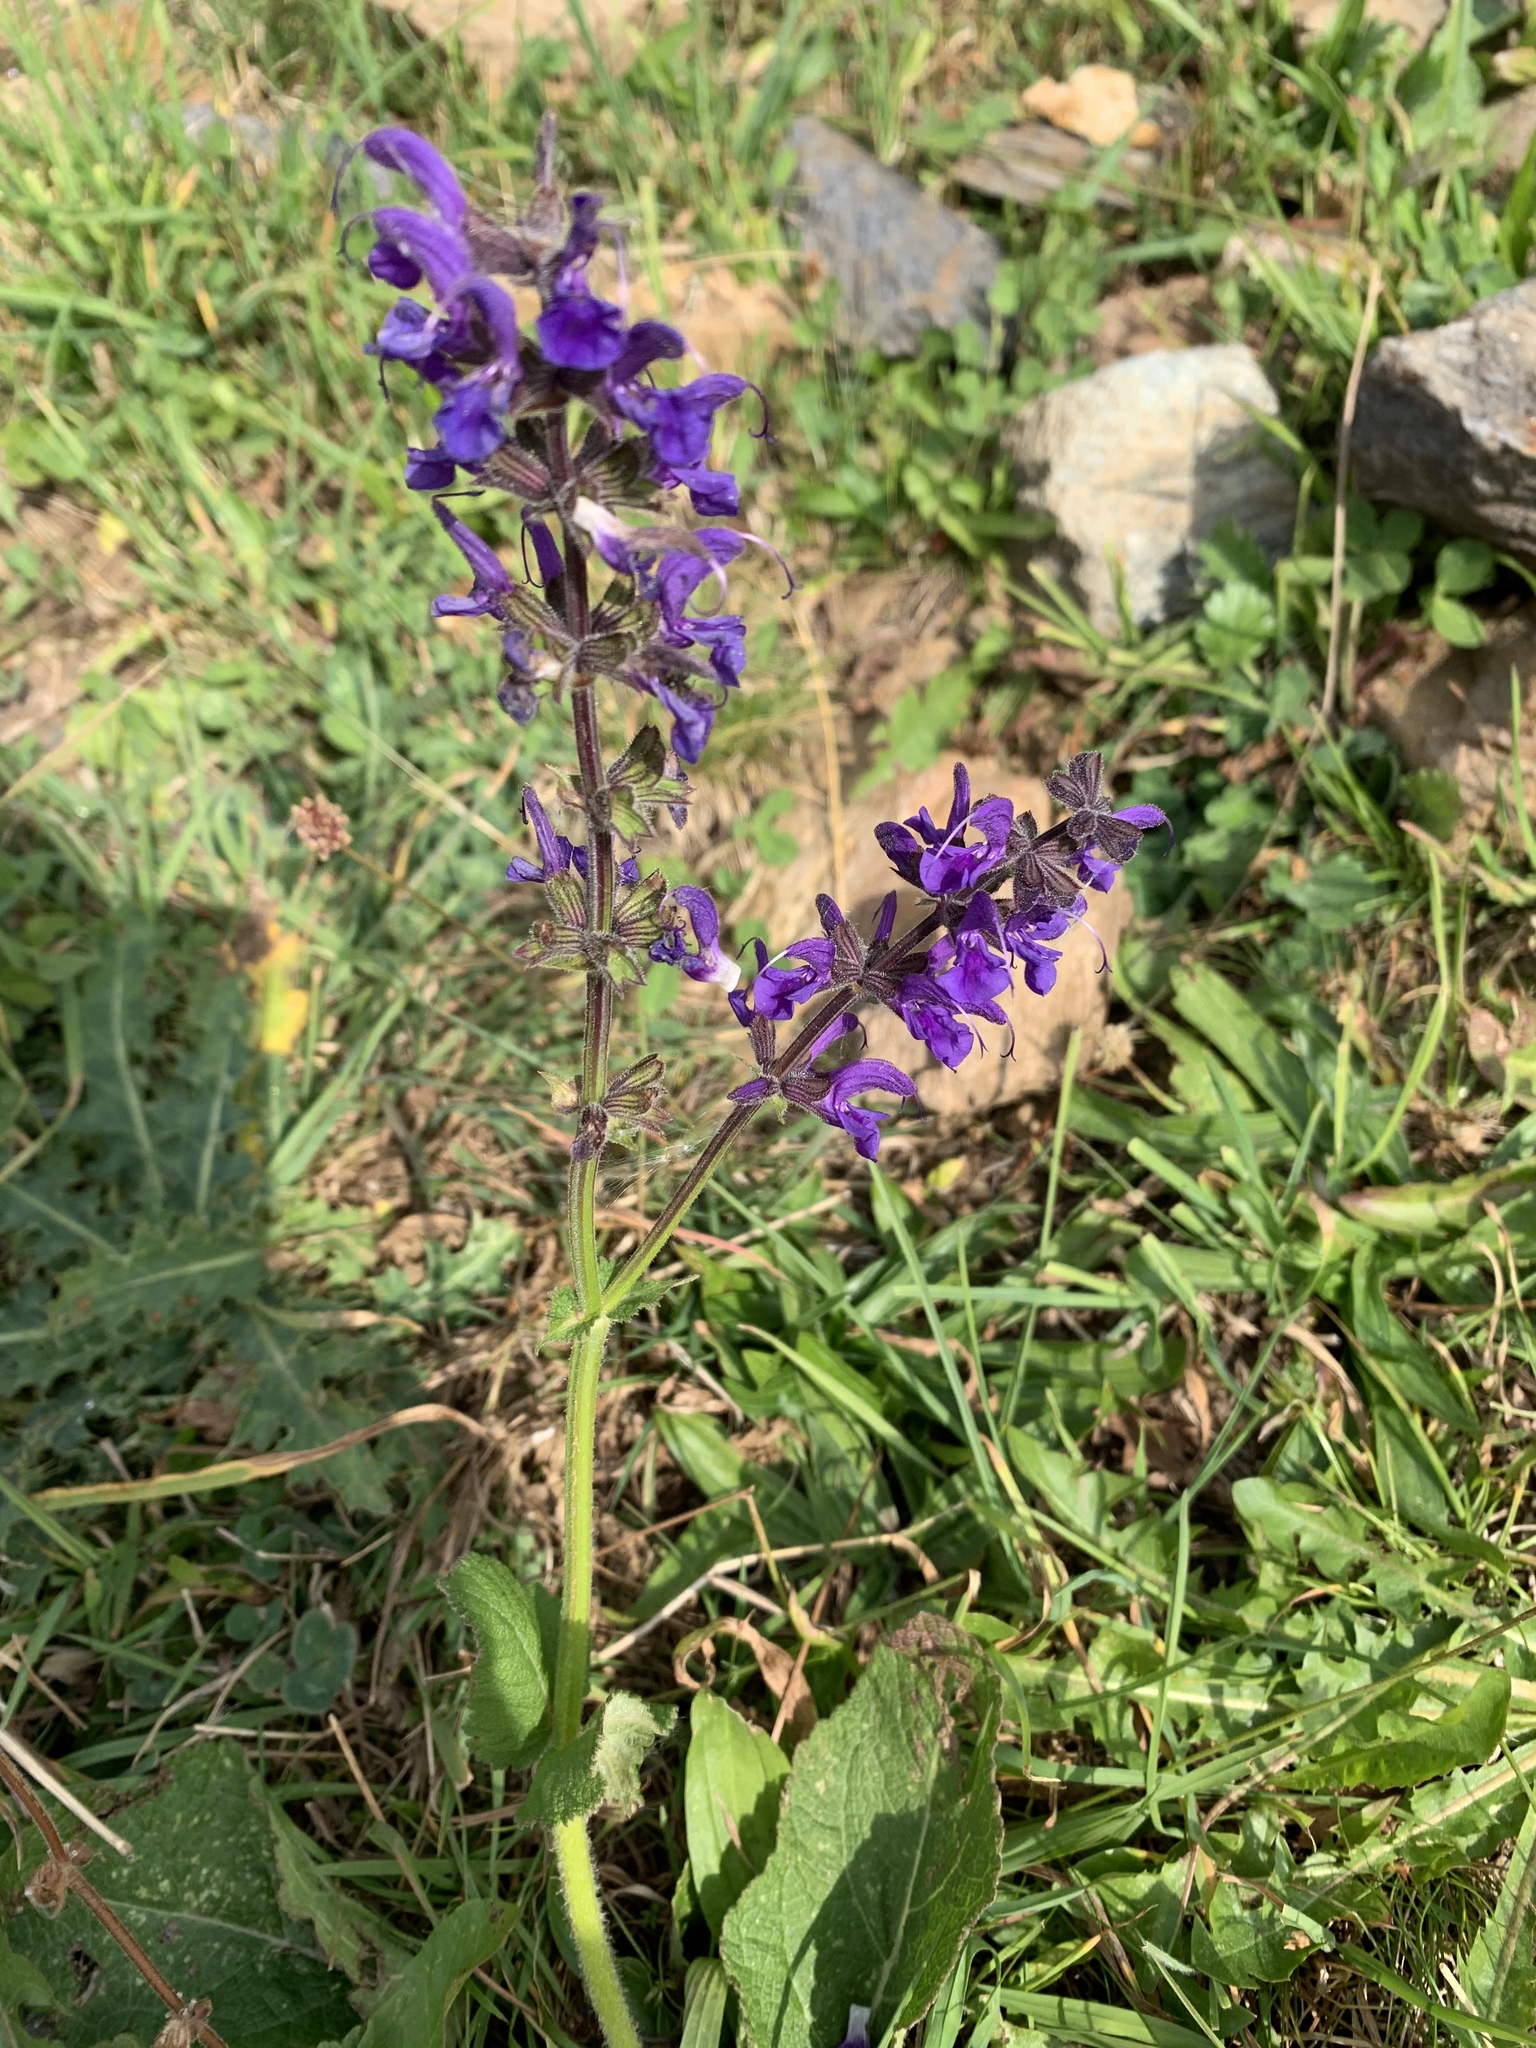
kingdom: Plantae
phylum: Tracheophyta
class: Magnoliopsida
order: Lamiales
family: Lamiaceae
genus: Salvia
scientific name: Salvia pratensis
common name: Meadow sage
